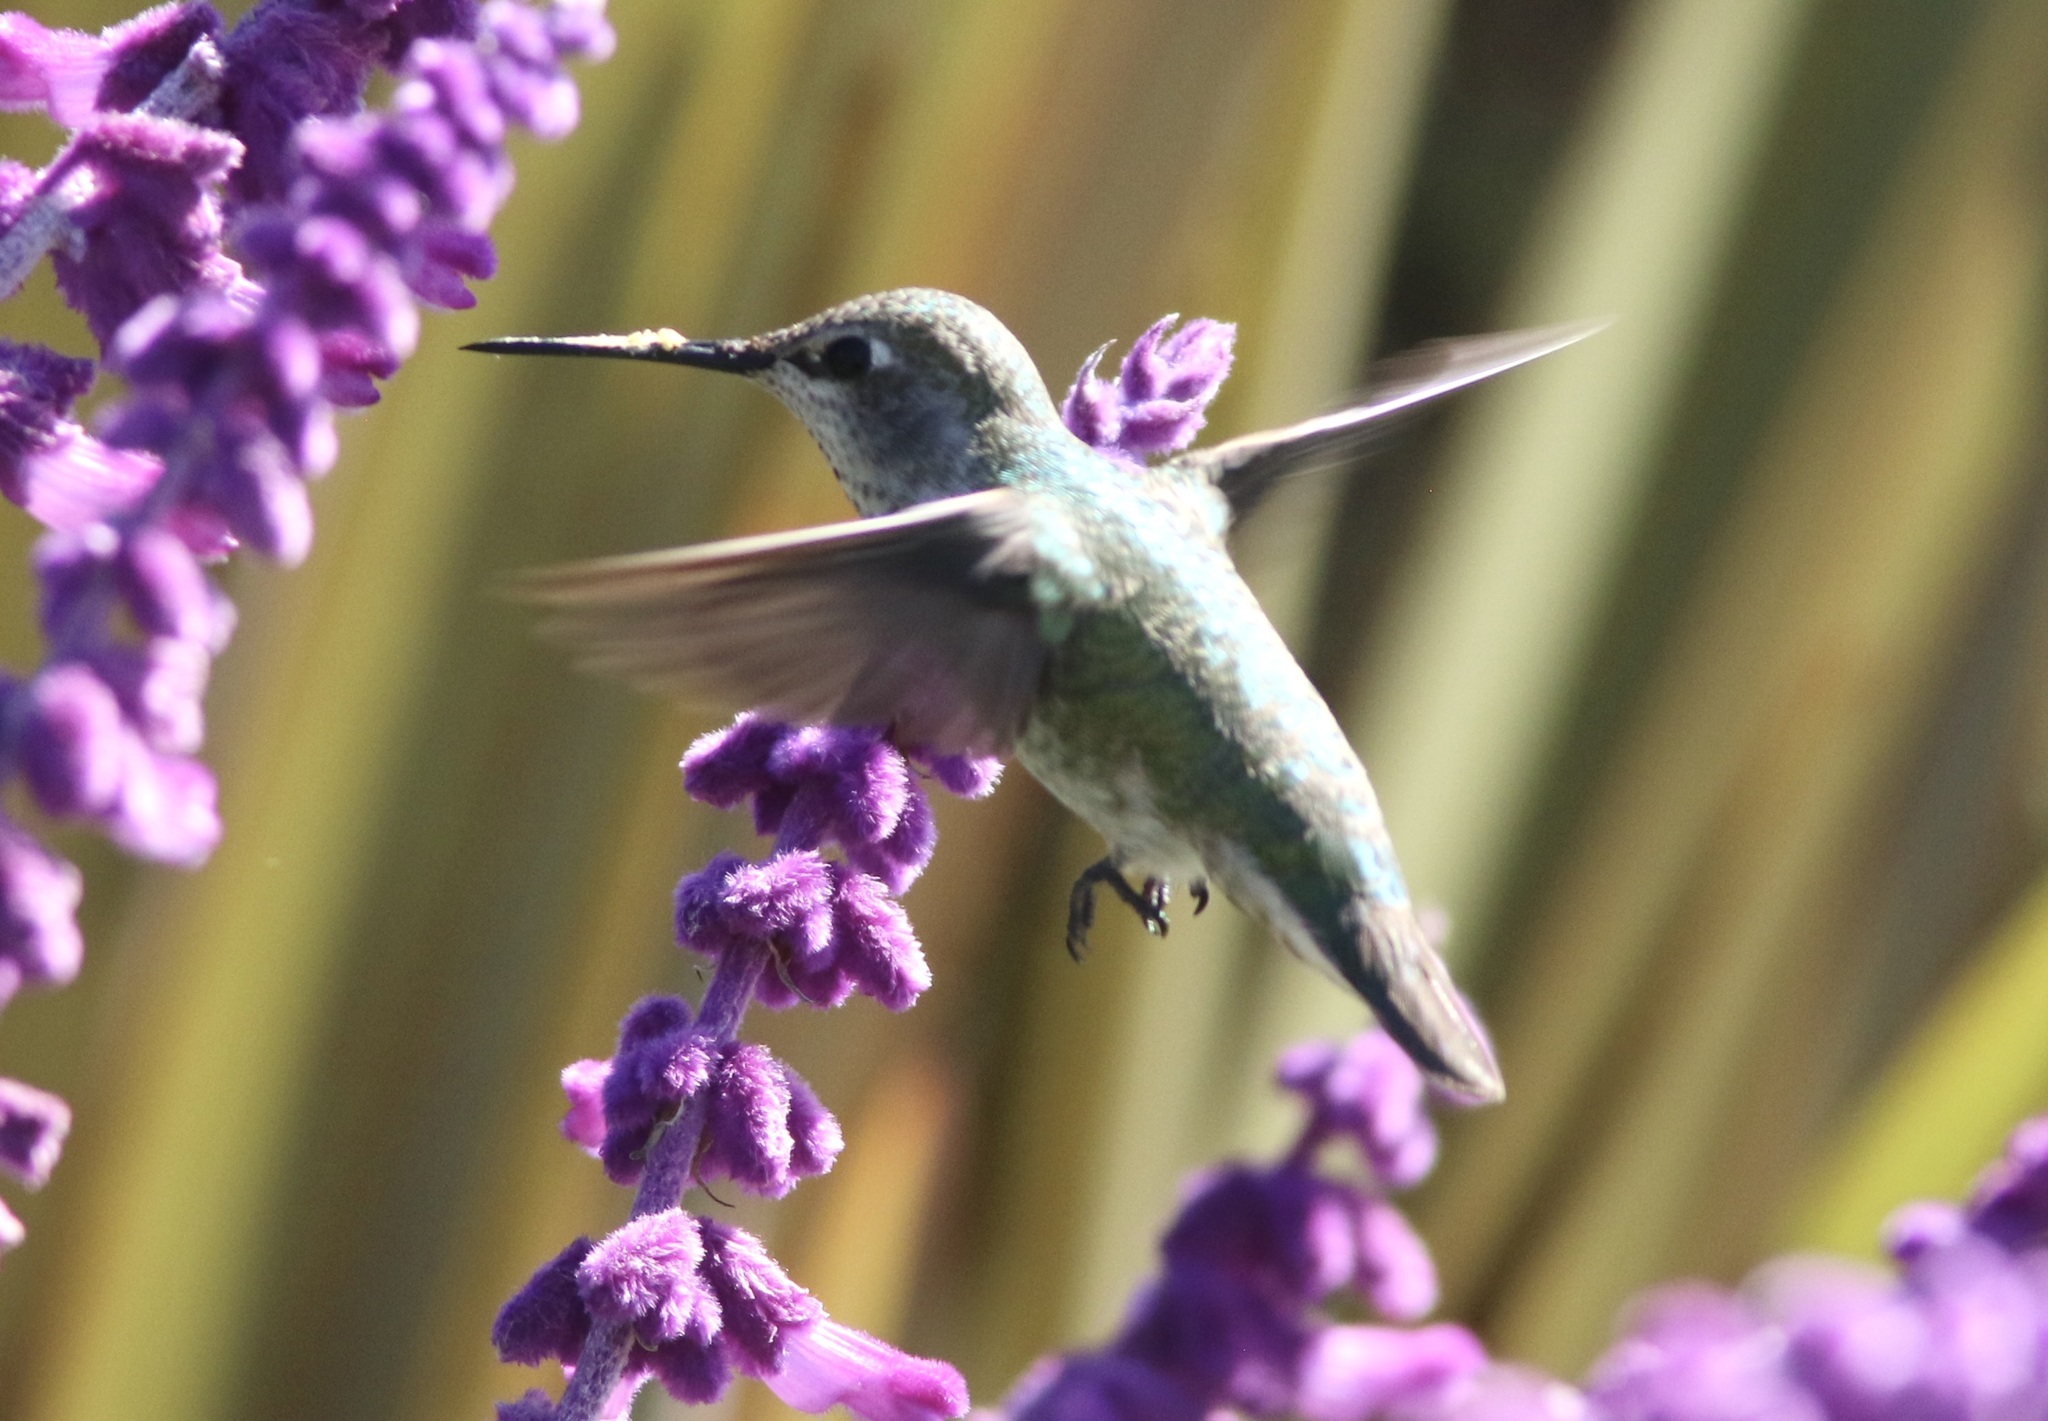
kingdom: Animalia
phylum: Chordata
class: Aves
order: Apodiformes
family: Trochilidae
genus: Calypte
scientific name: Calypte anna
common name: Anna's hummingbird
